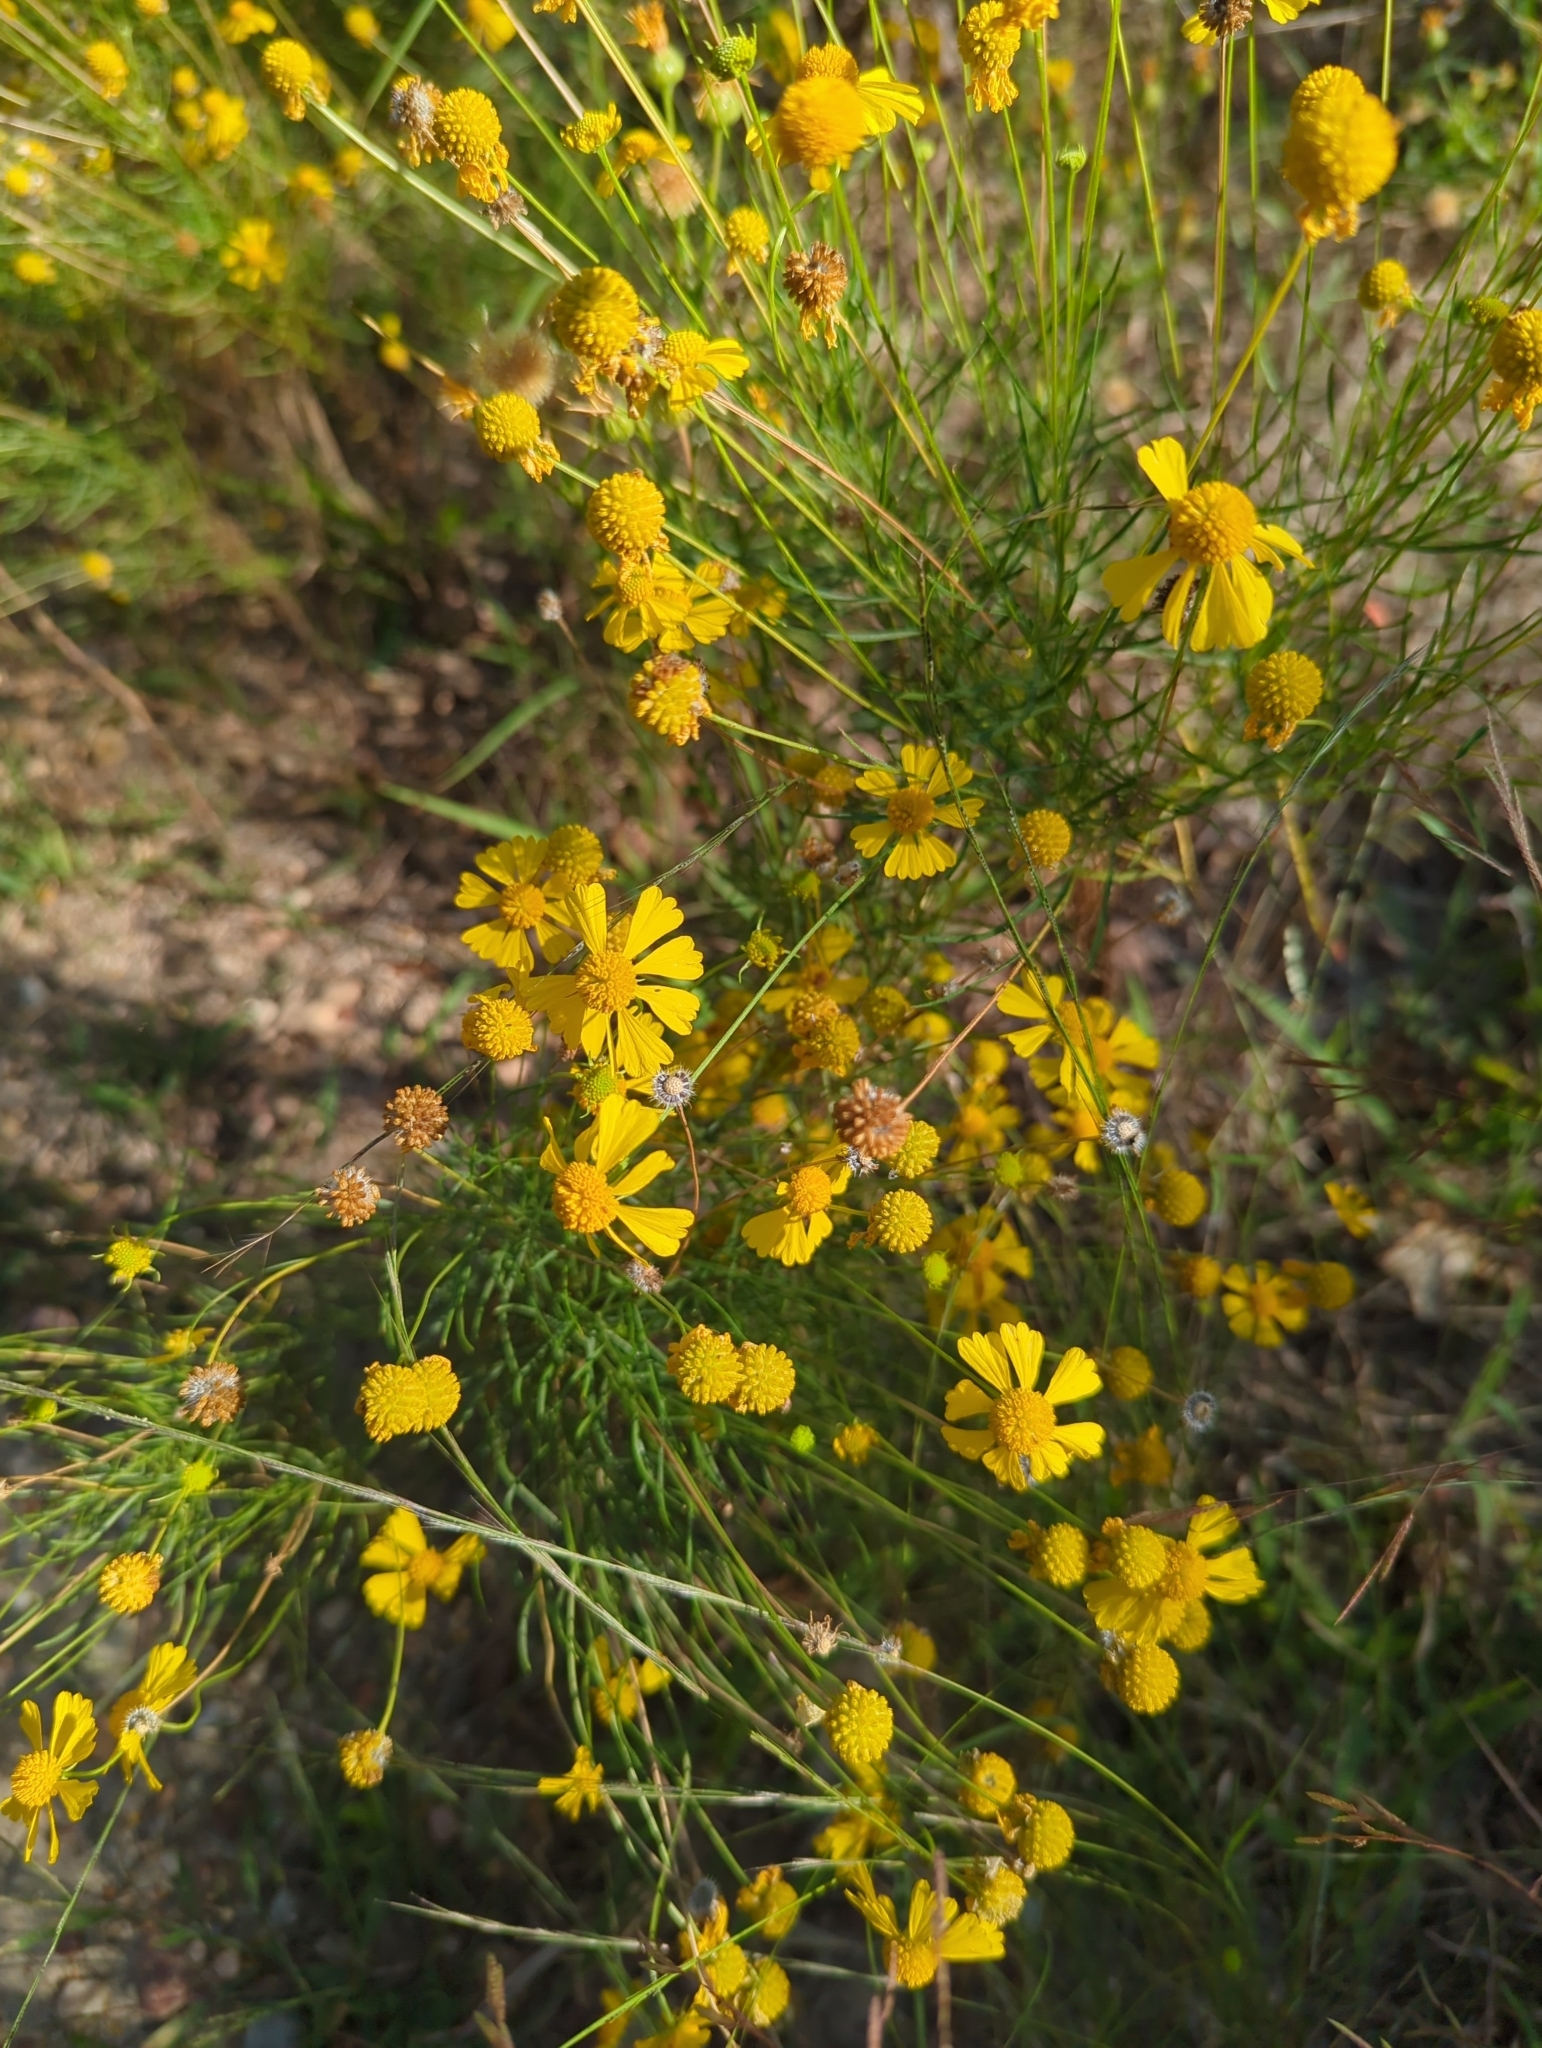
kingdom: Plantae
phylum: Tracheophyta
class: Magnoliopsida
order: Asterales
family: Asteraceae
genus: Helenium
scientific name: Helenium autumnale
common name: Sneezeweed
